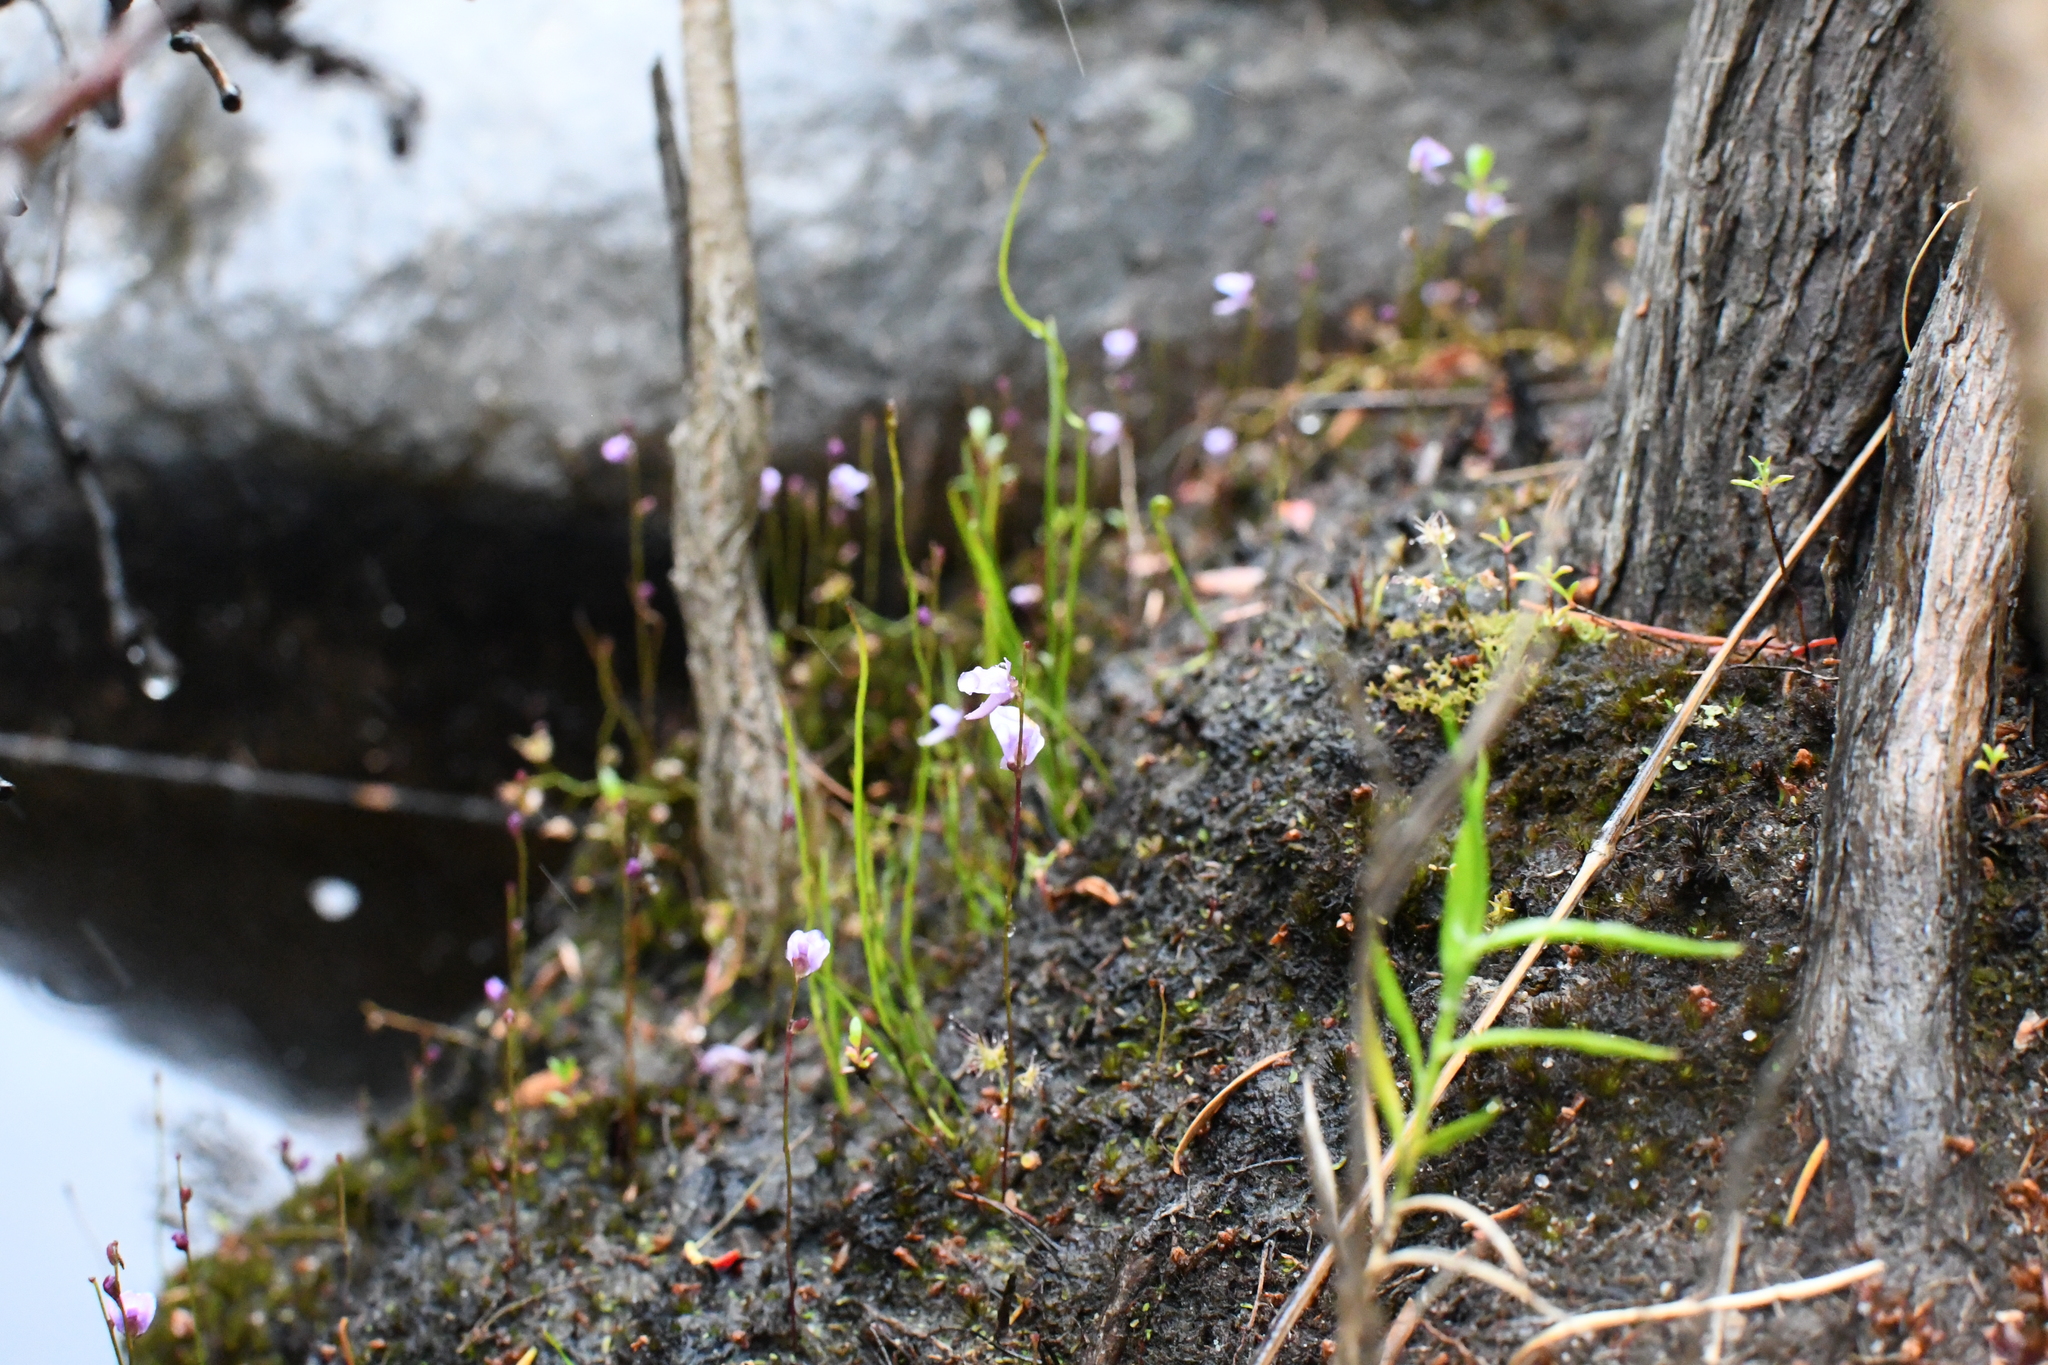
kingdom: Plantae
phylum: Tracheophyta
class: Magnoliopsida
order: Lamiales
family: Lentibulariaceae
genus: Utricularia
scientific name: Utricularia lateriflora
